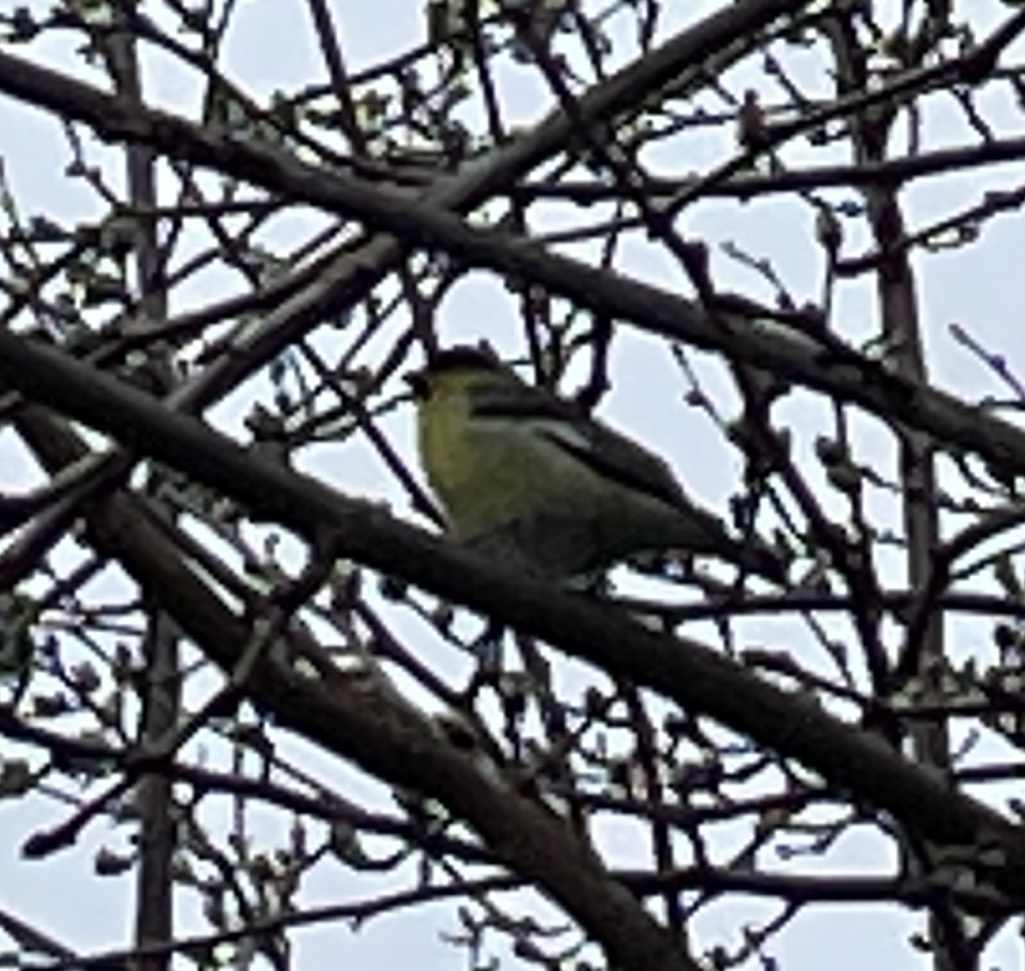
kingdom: Animalia
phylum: Chordata
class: Aves
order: Passeriformes
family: Fringillidae
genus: Spinus
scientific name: Spinus psaltria
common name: Lesser goldfinch
